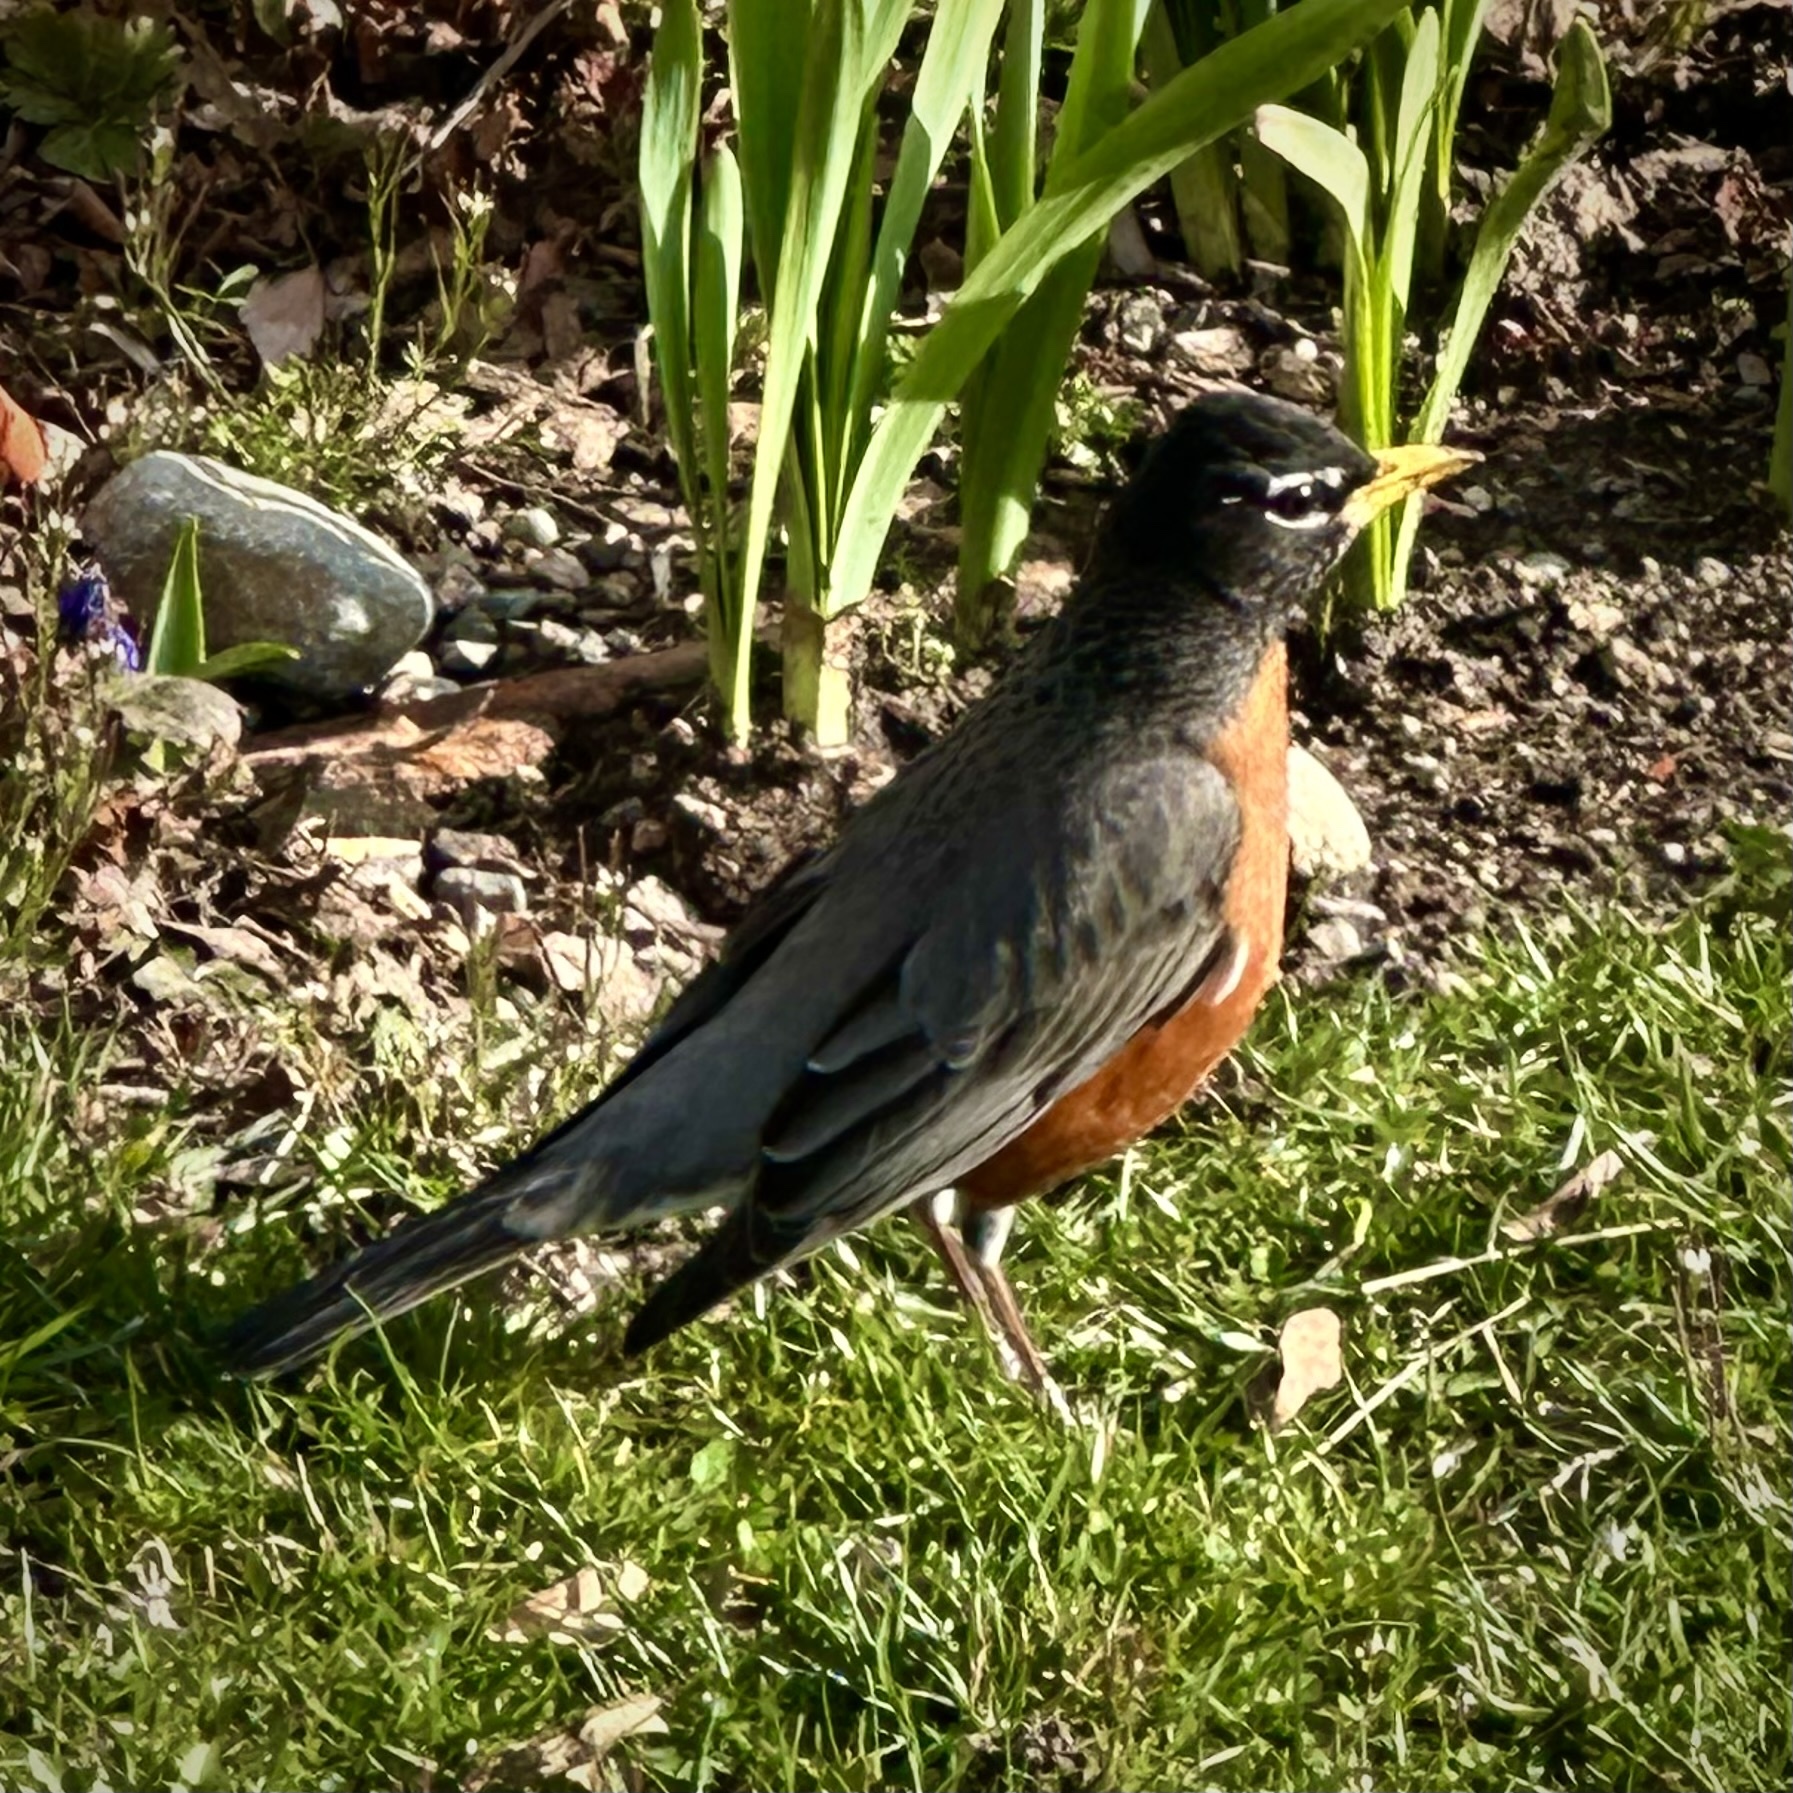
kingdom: Animalia
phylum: Chordata
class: Aves
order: Passeriformes
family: Turdidae
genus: Turdus
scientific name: Turdus migratorius
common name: American robin
